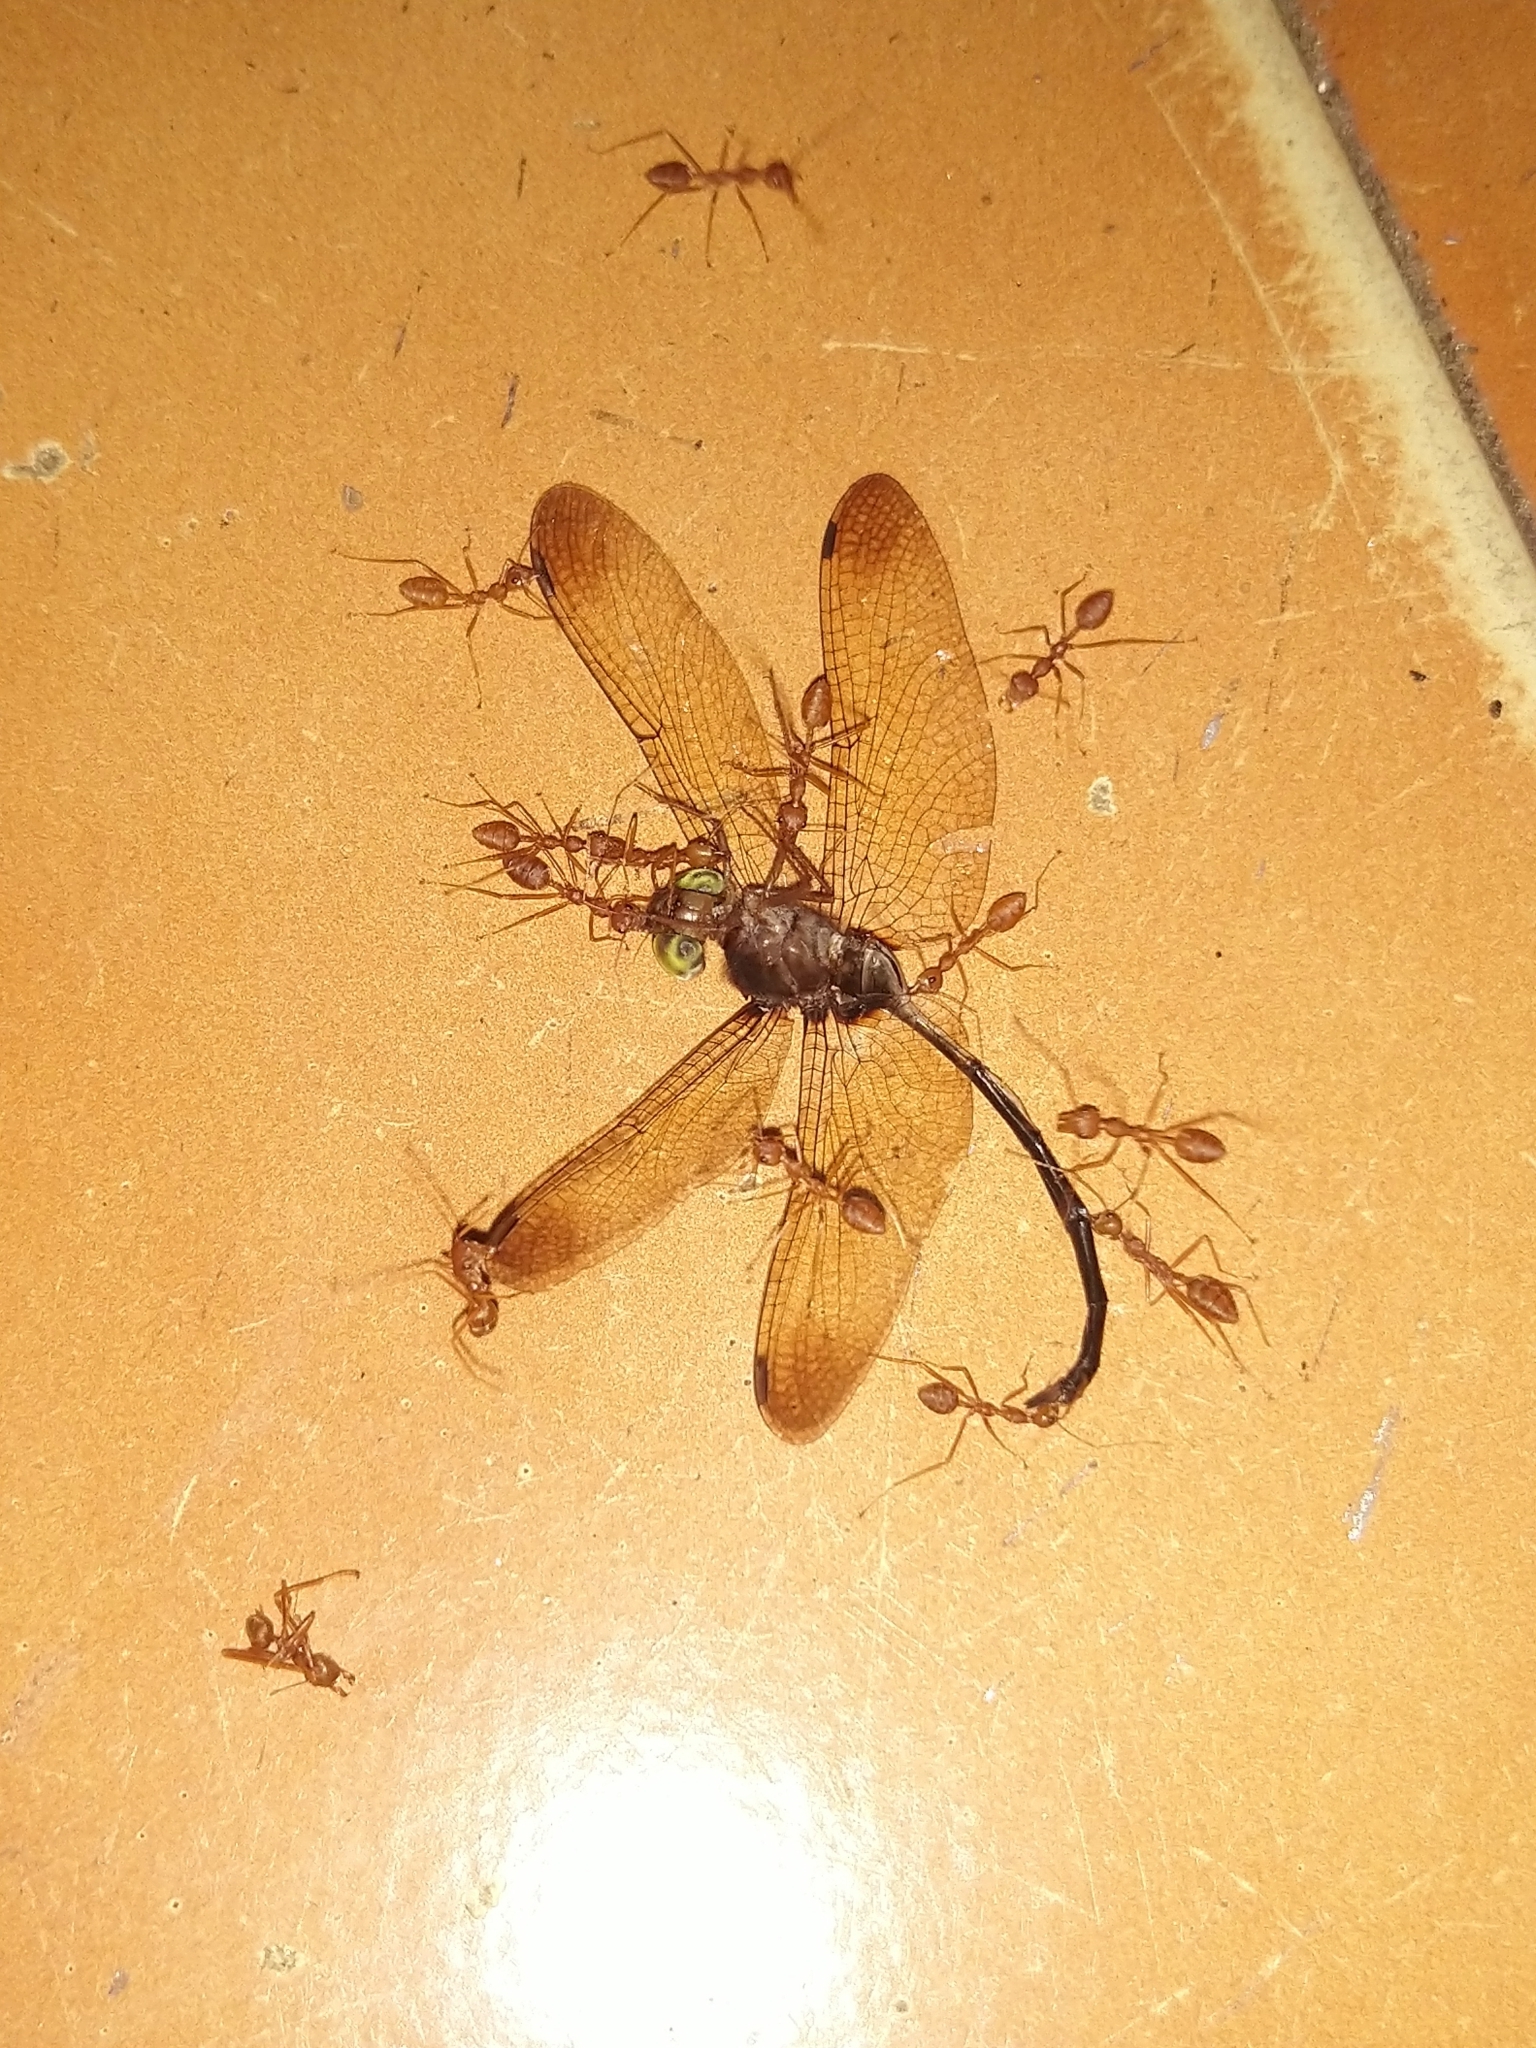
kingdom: Animalia
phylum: Arthropoda
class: Insecta
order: Hymenoptera
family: Formicidae
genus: Oecophylla
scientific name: Oecophylla smaragdina
